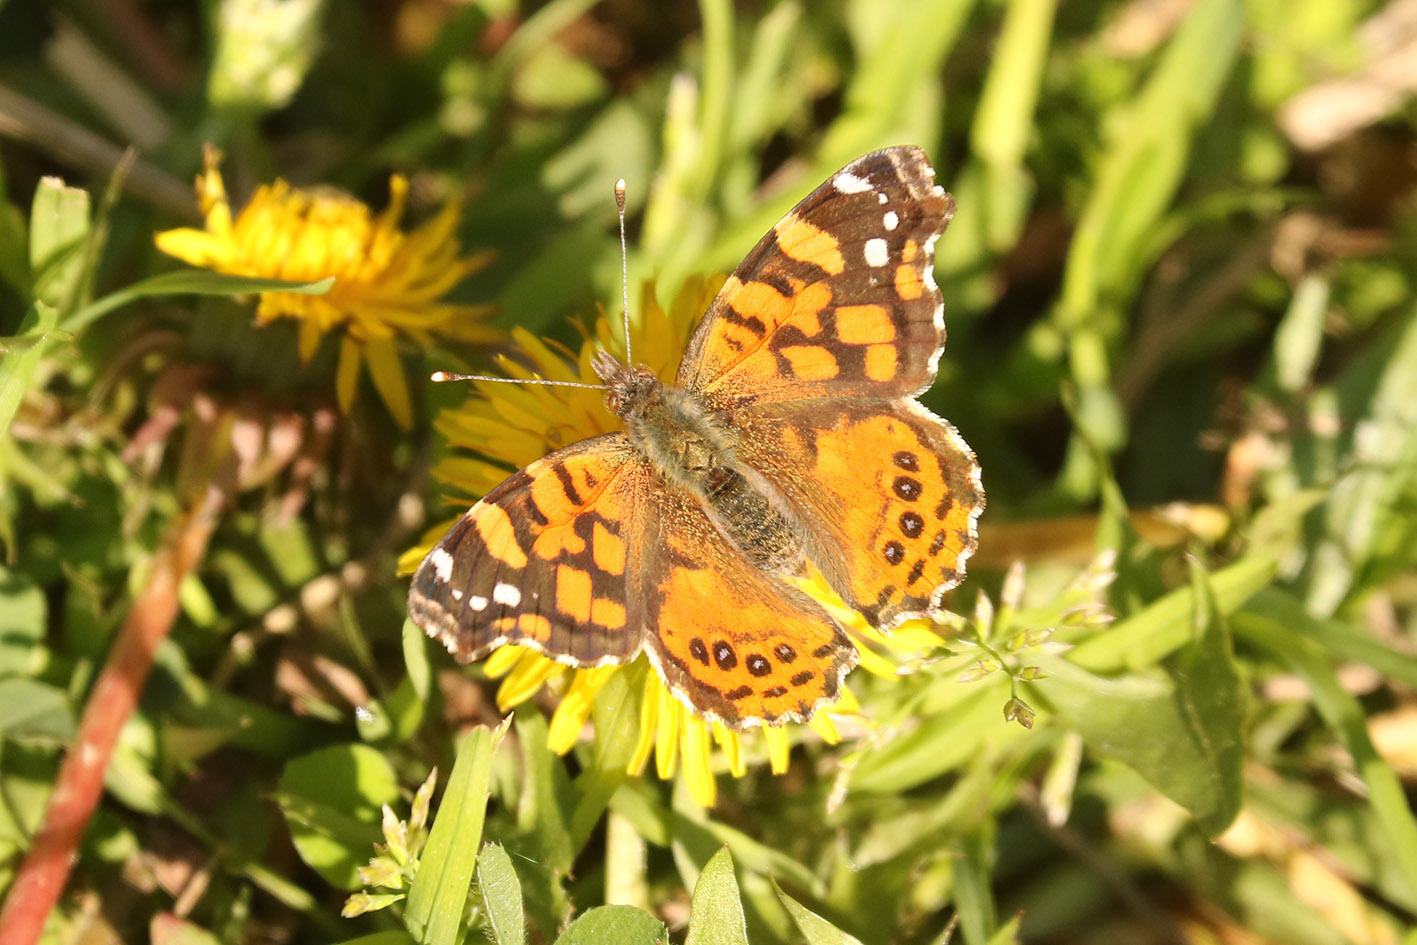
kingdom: Animalia
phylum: Arthropoda
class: Insecta
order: Lepidoptera
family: Nymphalidae
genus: Vanessa
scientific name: Vanessa carye
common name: Subtropical lady
